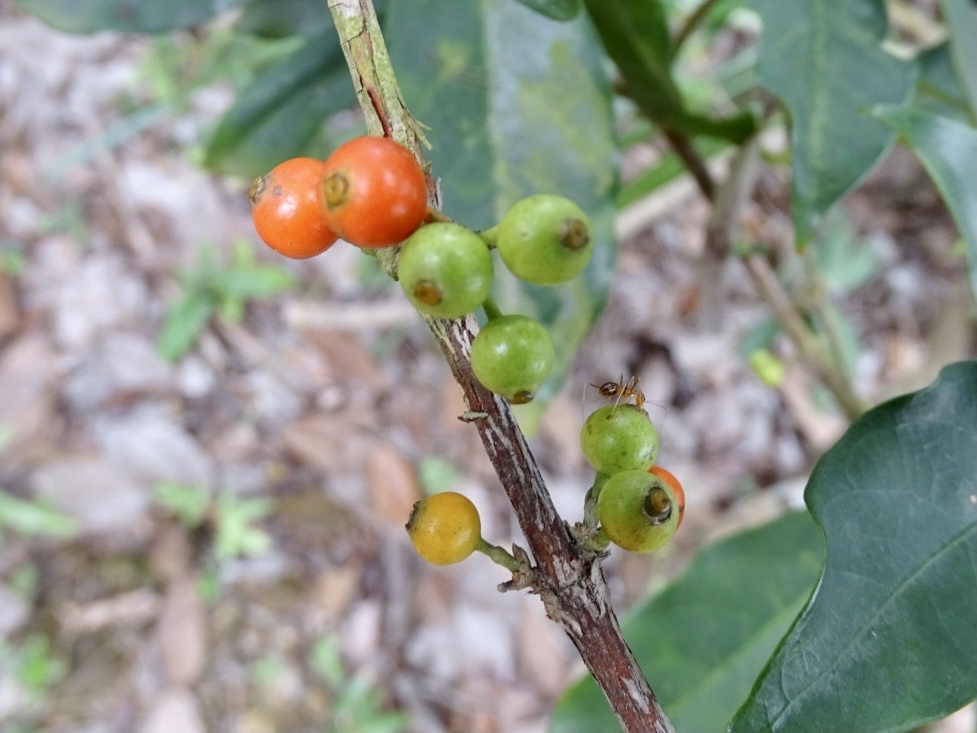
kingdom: Plantae
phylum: Tracheophyta
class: Magnoliopsida
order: Gentianales
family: Rubiaceae
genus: Diplospora
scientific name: Diplospora dubia
